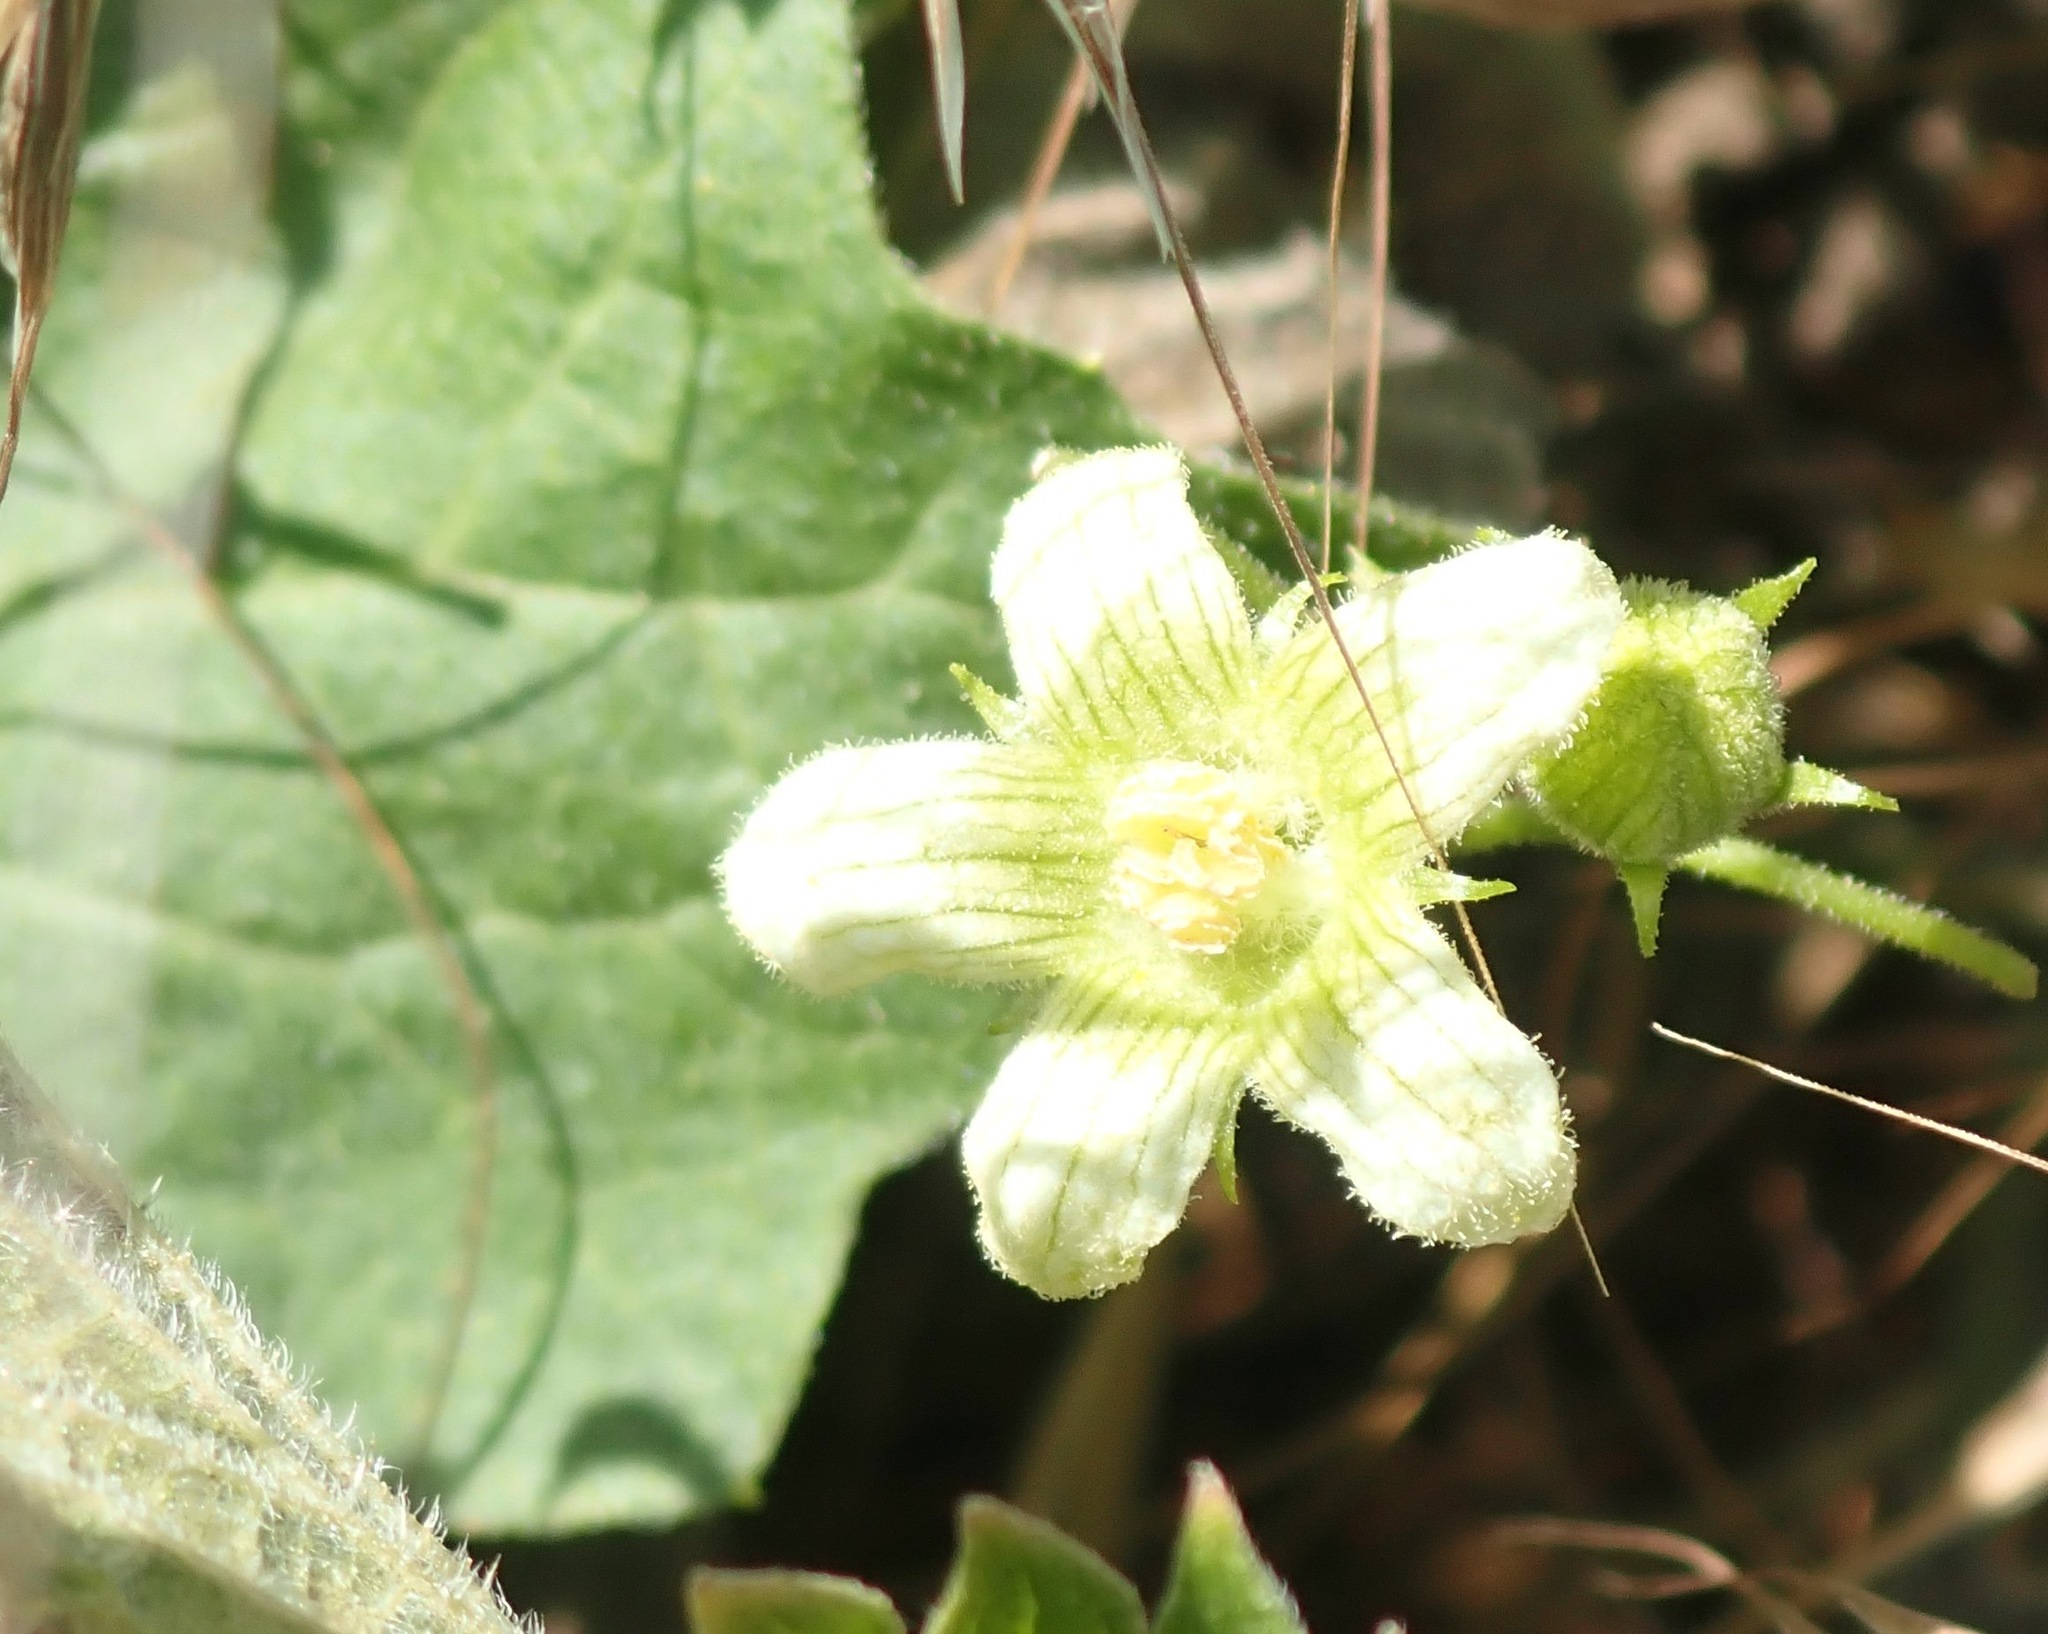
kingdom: Plantae
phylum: Tracheophyta
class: Magnoliopsida
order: Cucurbitales
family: Cucurbitaceae
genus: Bryonia
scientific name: Bryonia cretica
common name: Cretan bryony
